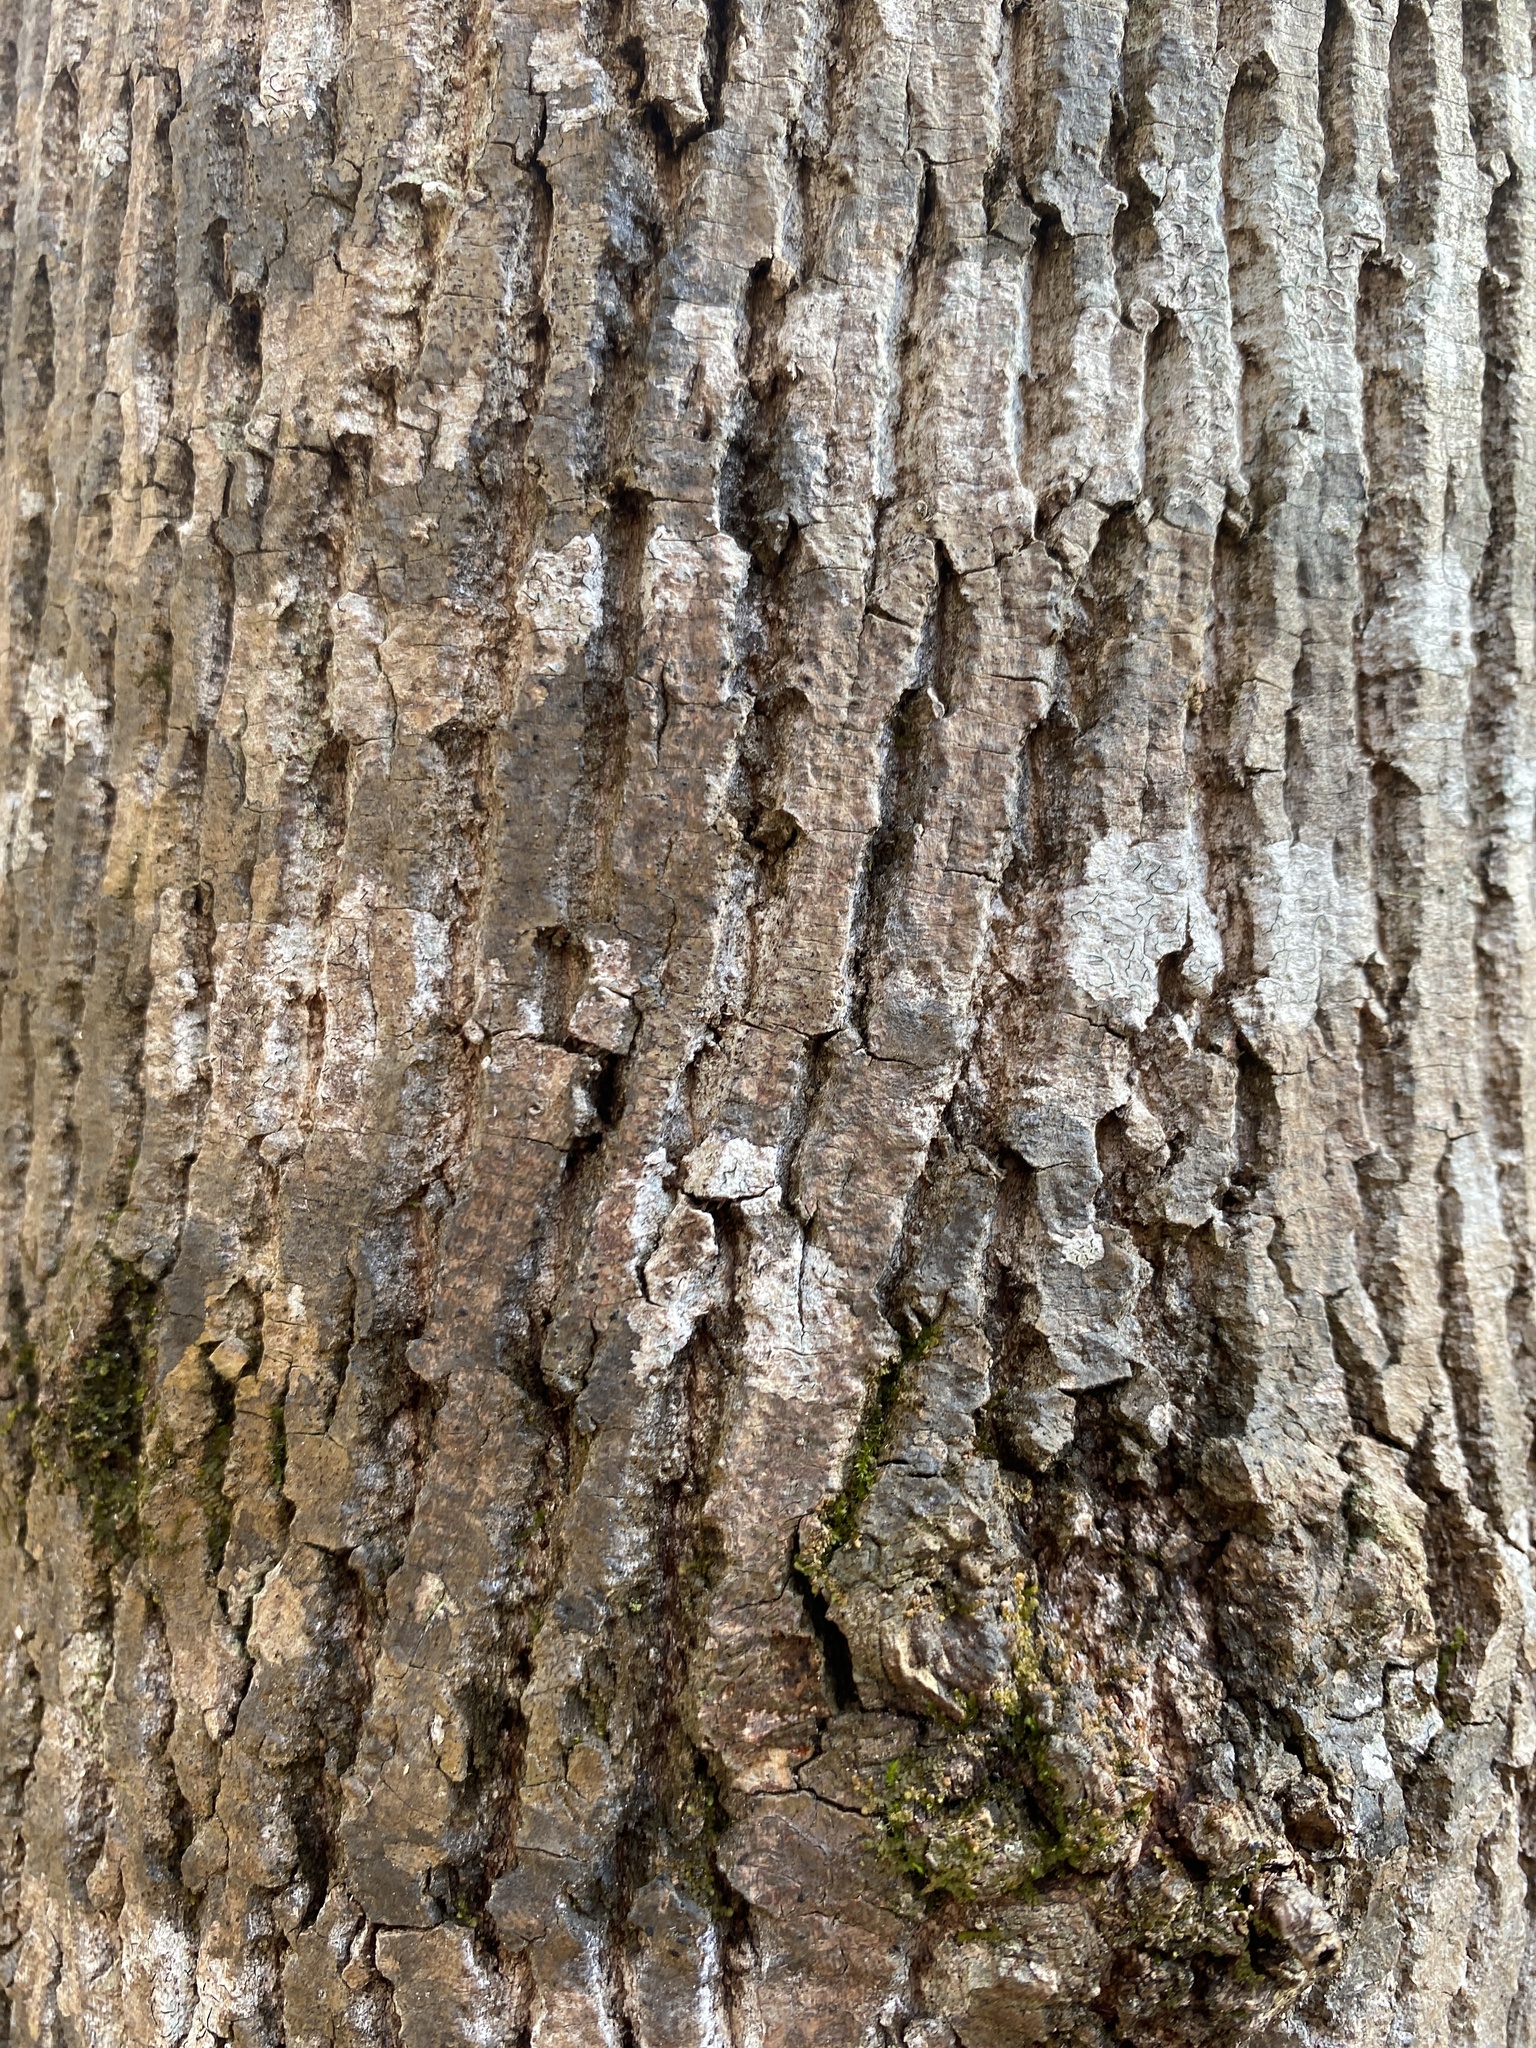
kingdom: Plantae
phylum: Tracheophyta
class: Magnoliopsida
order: Magnoliales
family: Magnoliaceae
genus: Liriodendron
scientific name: Liriodendron tulipifera
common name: Tulip tree
